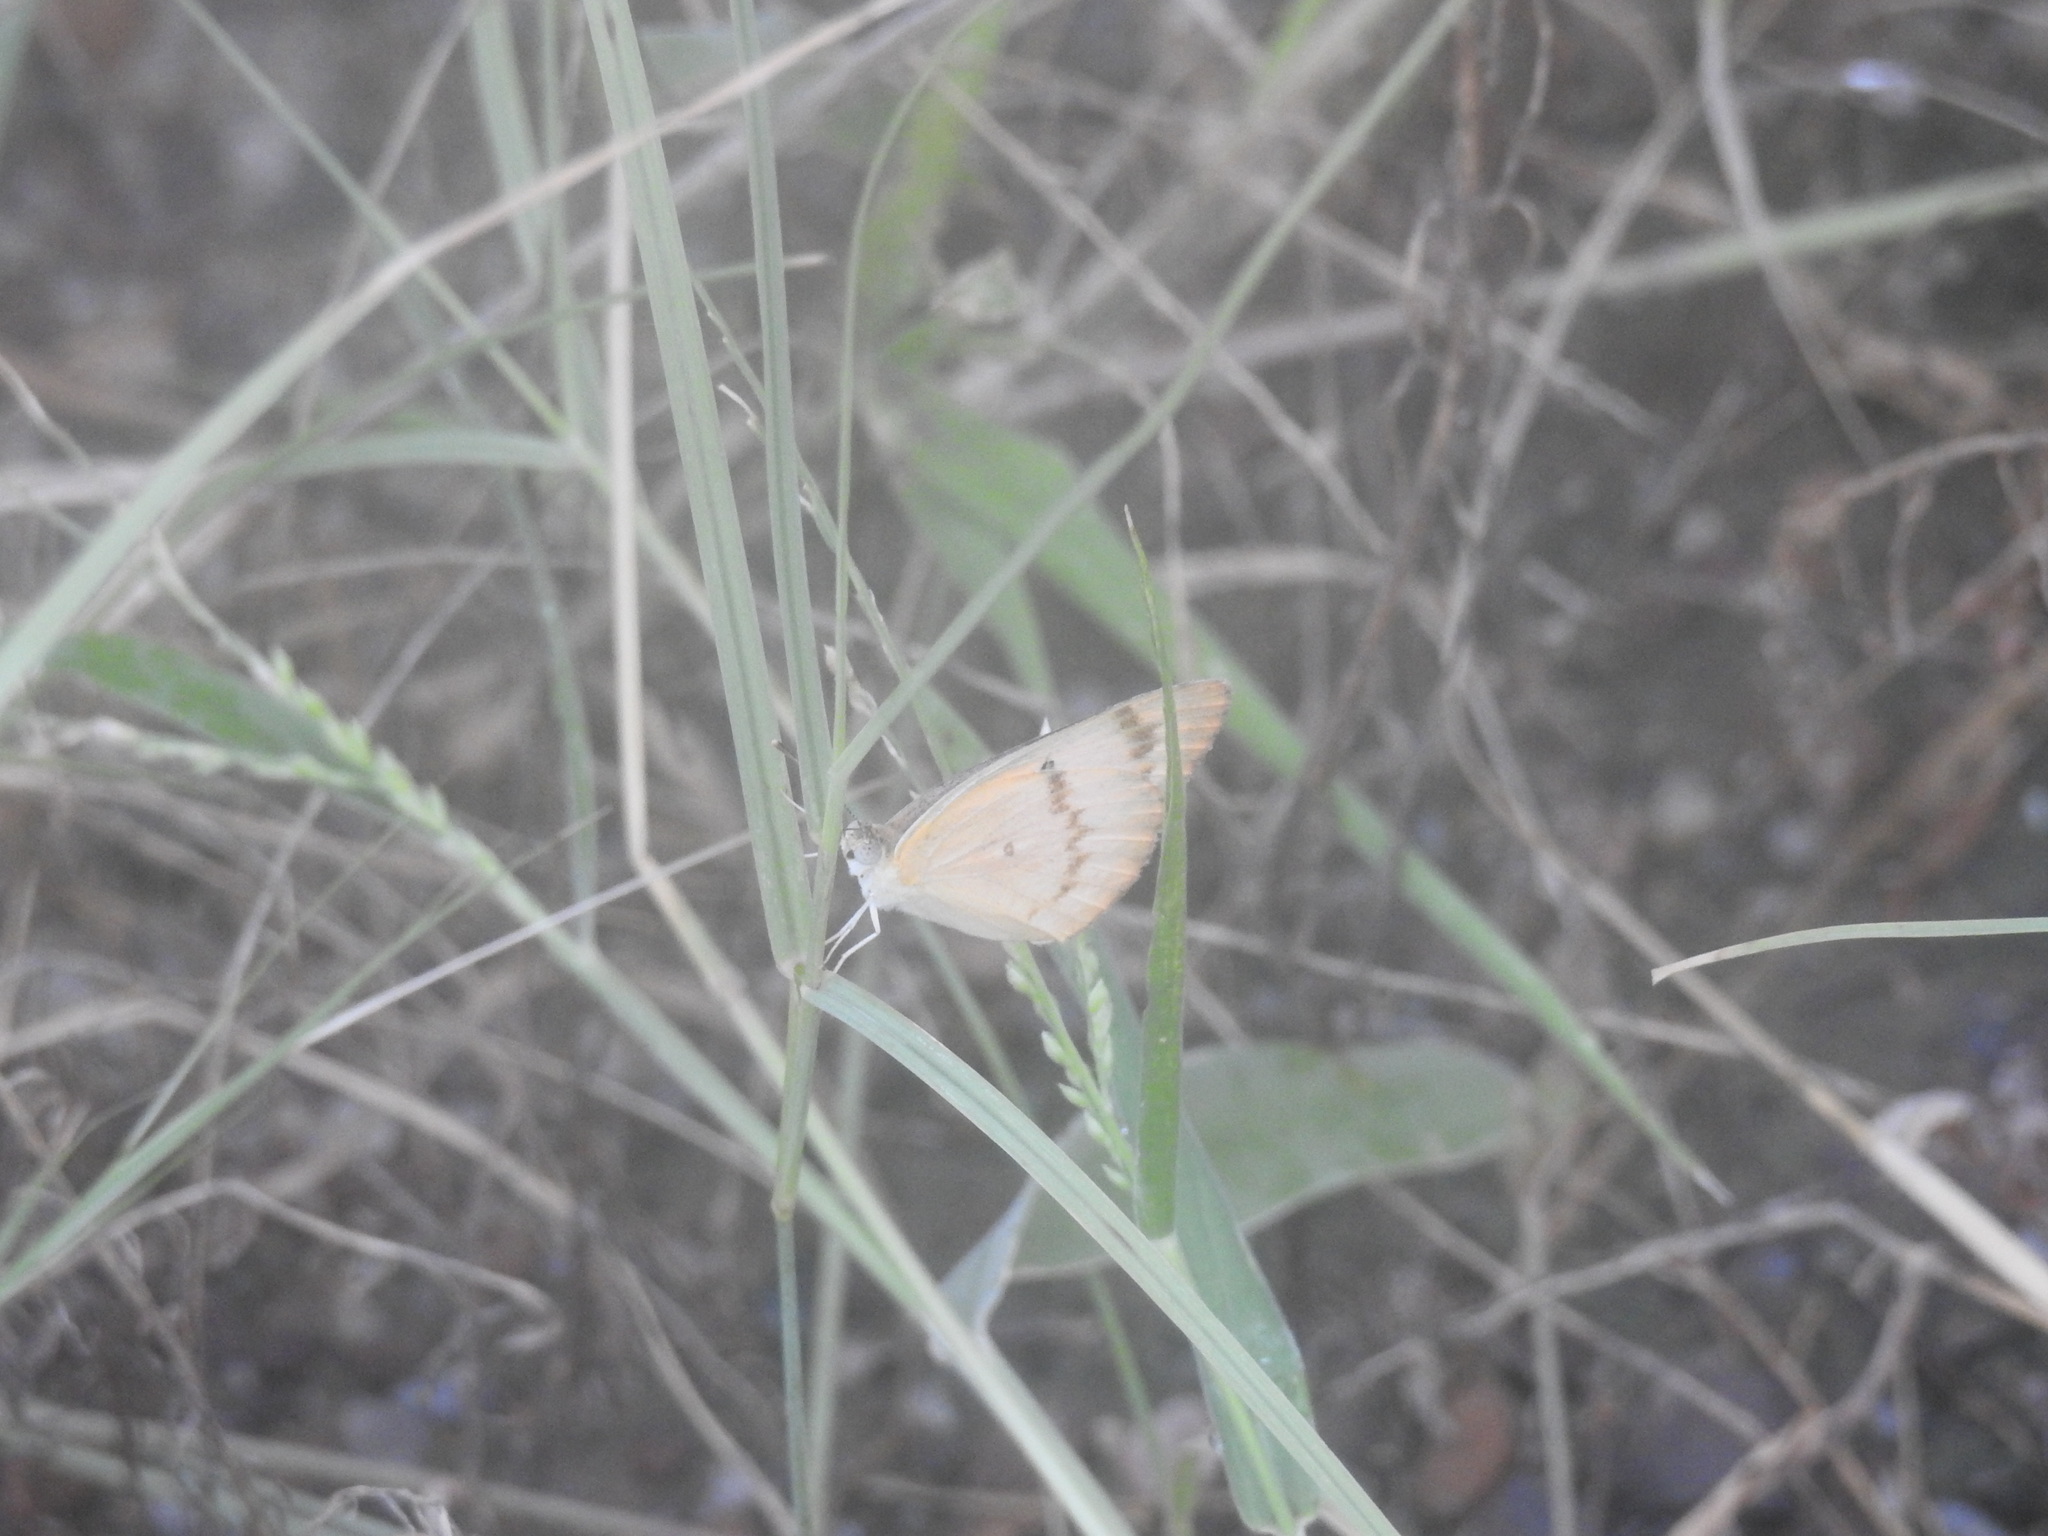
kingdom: Animalia
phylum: Arthropoda
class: Insecta
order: Lepidoptera
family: Pieridae
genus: Colotis
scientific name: Colotis fausta
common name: Large salmon arab
